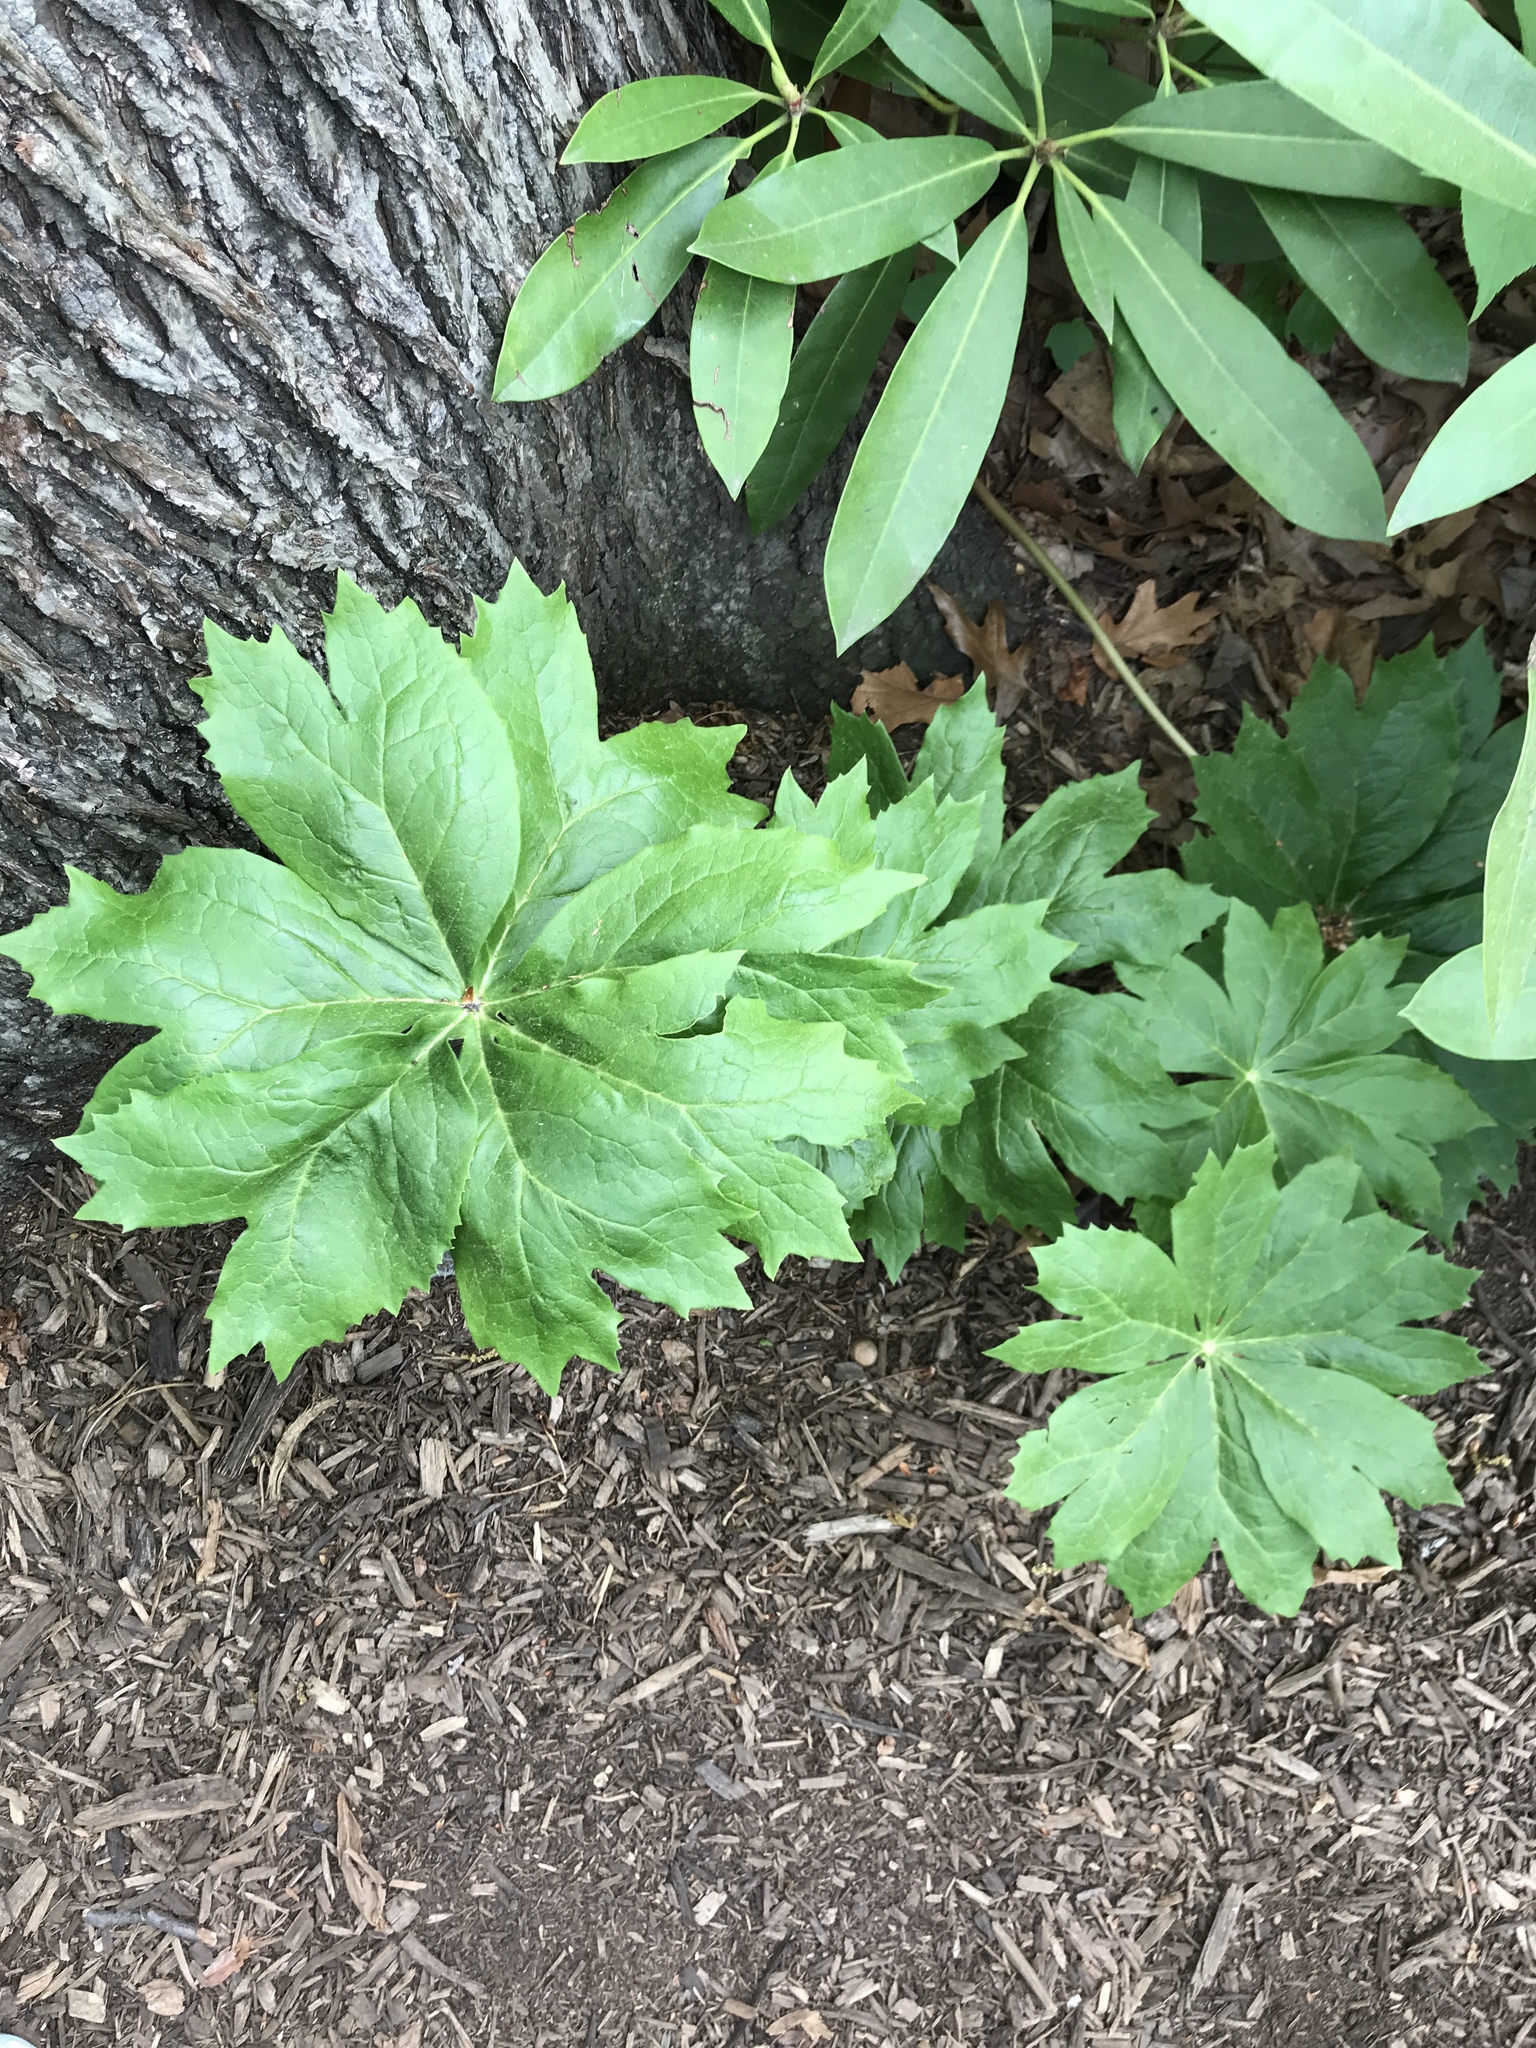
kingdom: Plantae
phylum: Tracheophyta
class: Magnoliopsida
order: Ranunculales
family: Berberidaceae
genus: Podophyllum
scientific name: Podophyllum peltatum
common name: Wild mandrake
